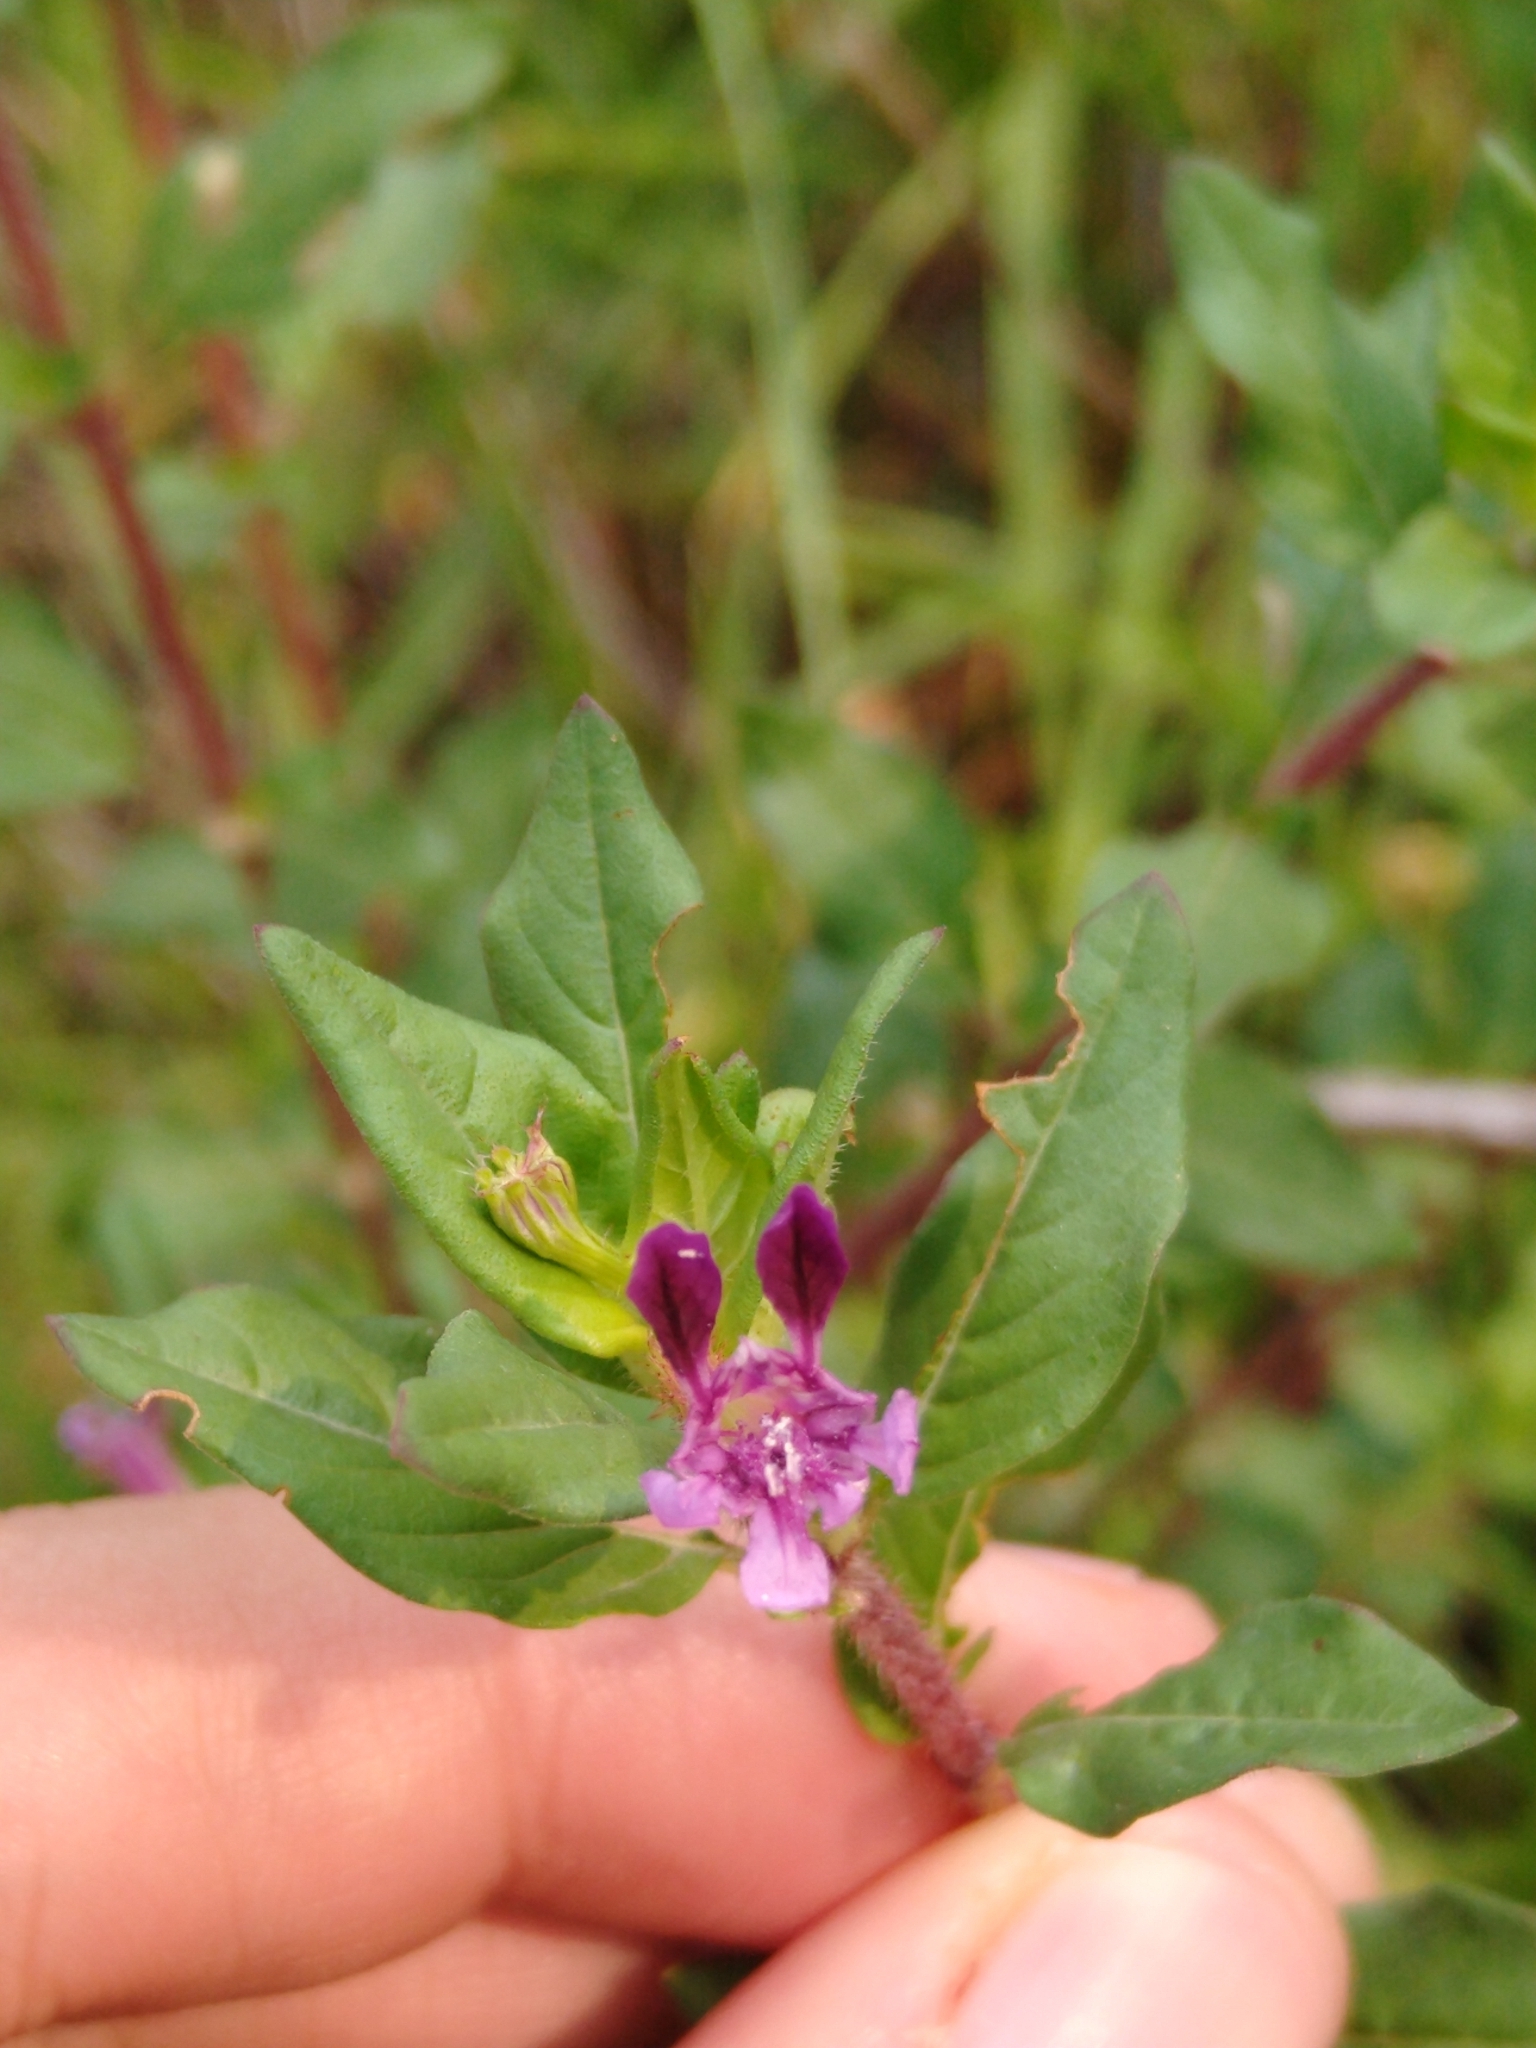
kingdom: Plantae
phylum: Tracheophyta
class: Magnoliopsida
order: Myrtales
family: Lythraceae
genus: Cuphea
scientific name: Cuphea aequipetala
